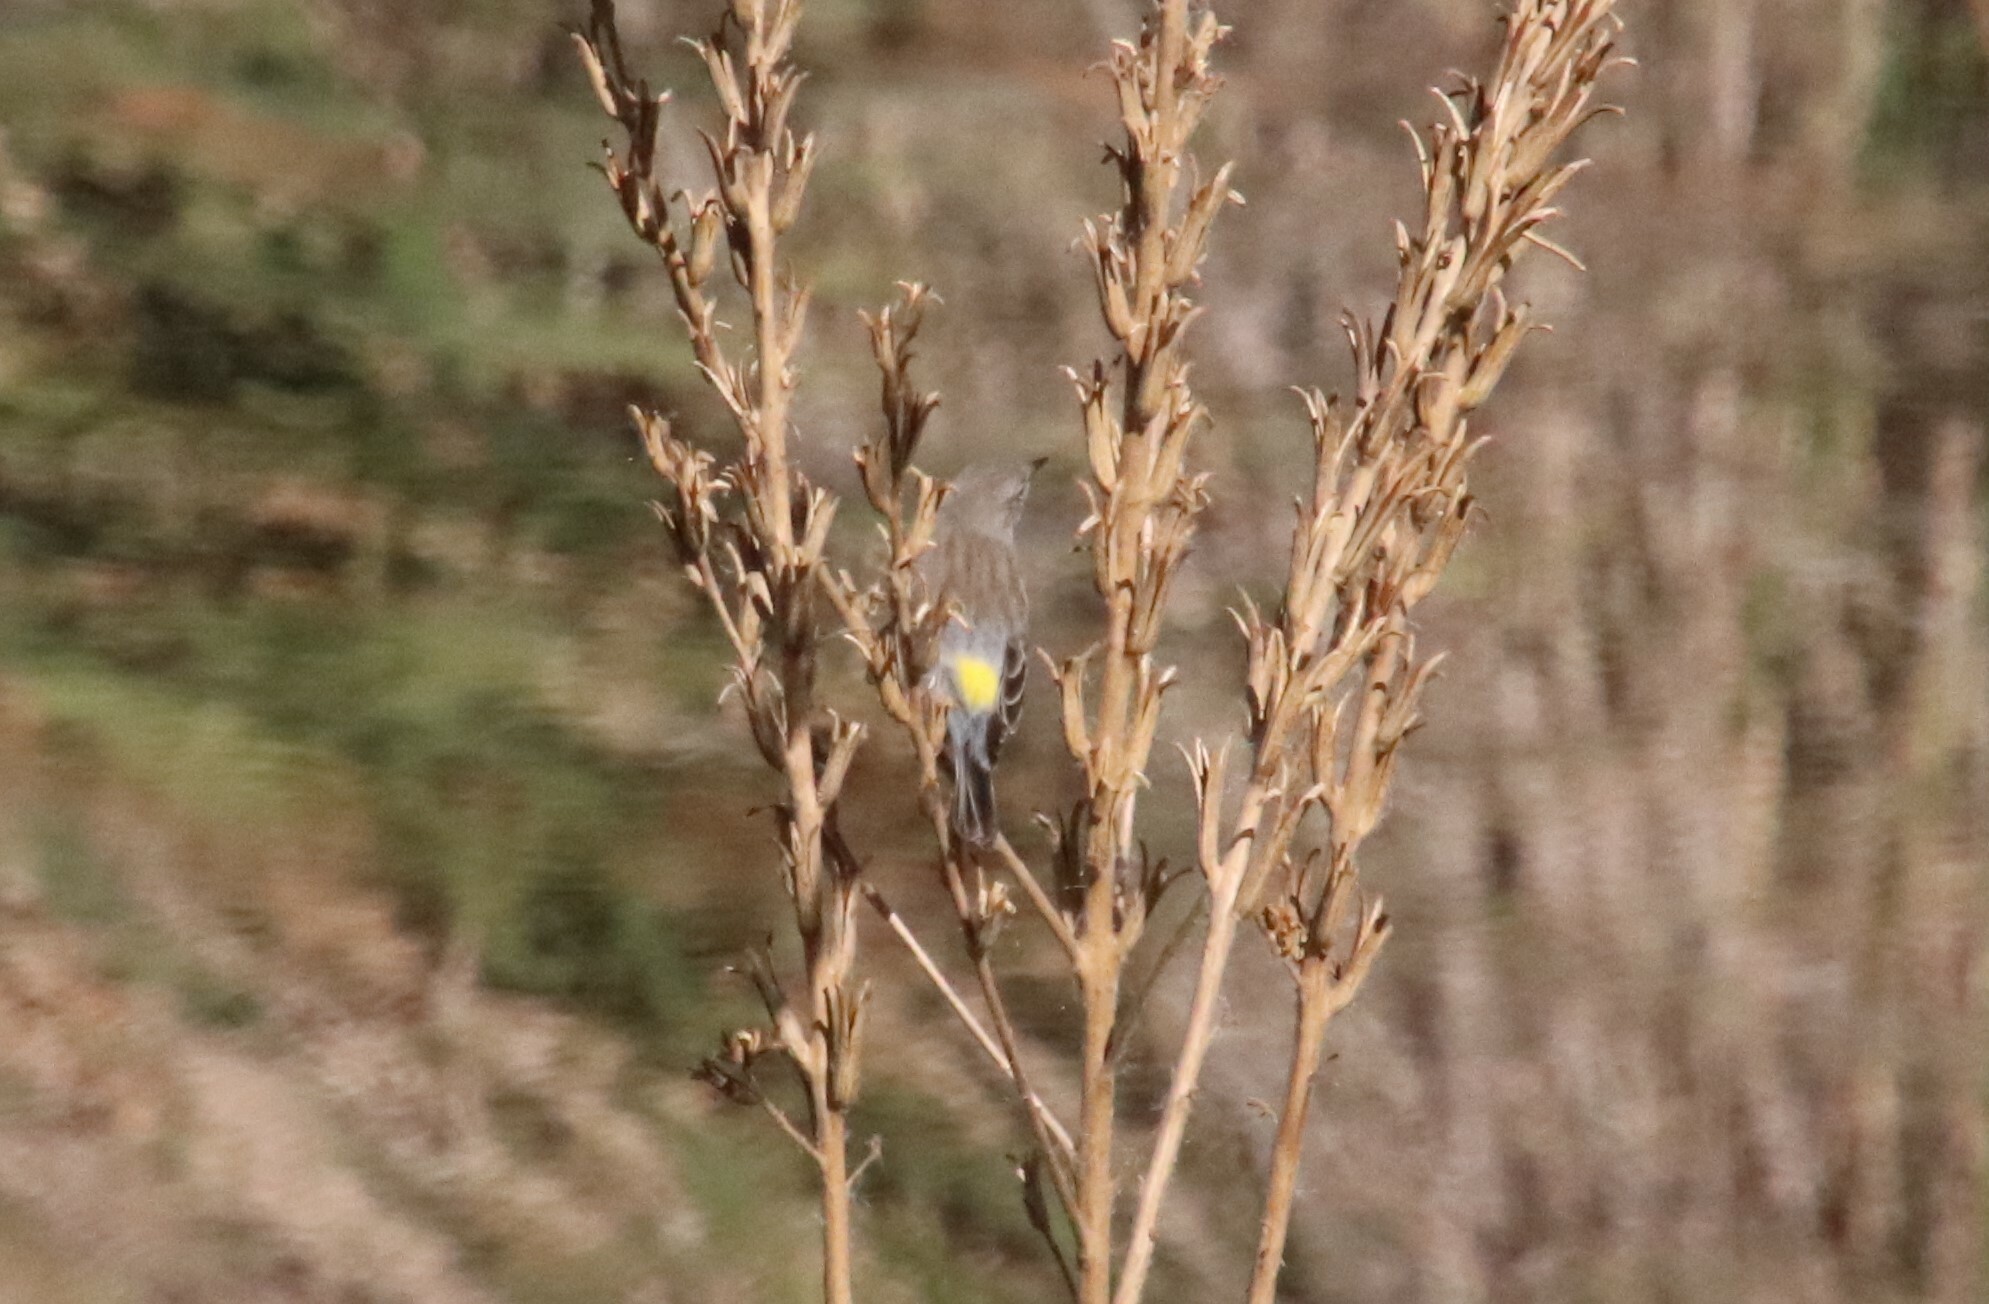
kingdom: Animalia
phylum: Chordata
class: Aves
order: Passeriformes
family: Parulidae
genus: Setophaga
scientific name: Setophaga coronata
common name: Myrtle warbler
